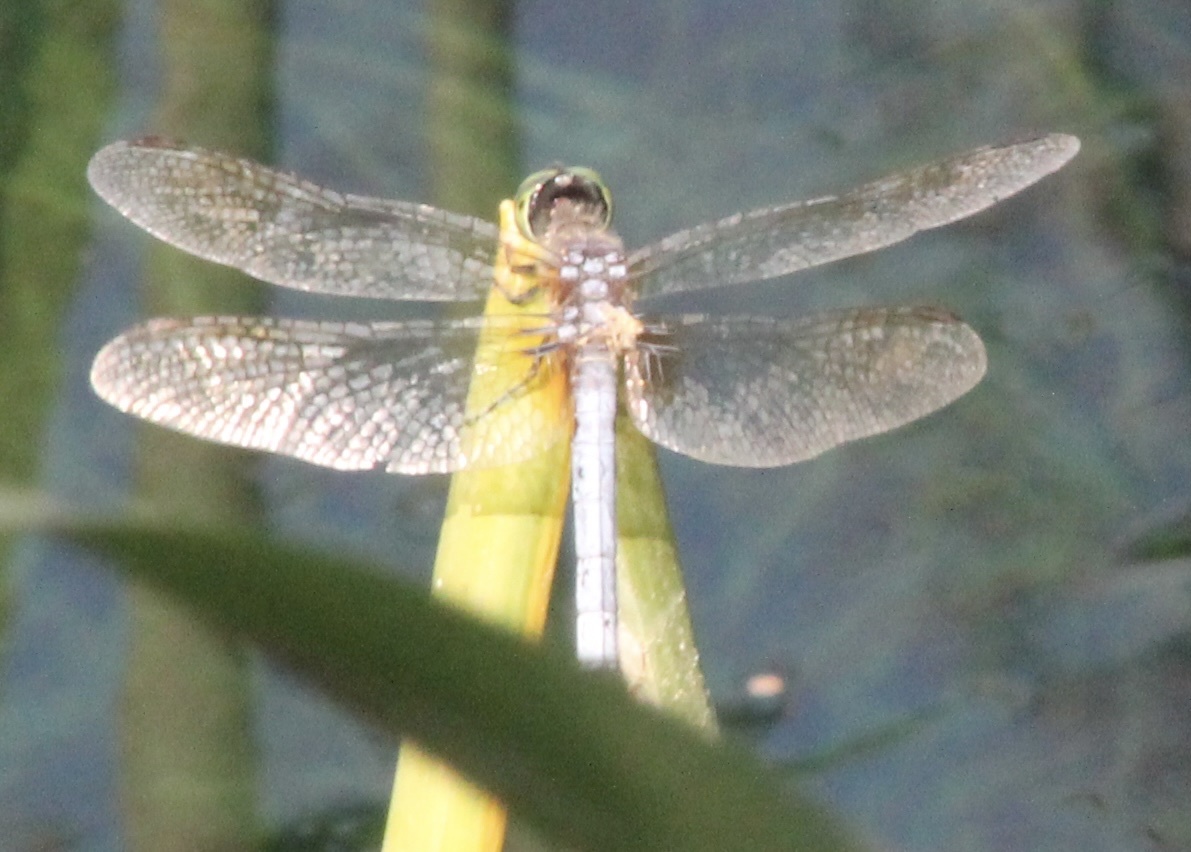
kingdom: Animalia
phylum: Arthropoda
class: Insecta
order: Odonata
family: Libellulidae
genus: Pachydiplax
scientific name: Pachydiplax longipennis
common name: Blue dasher
